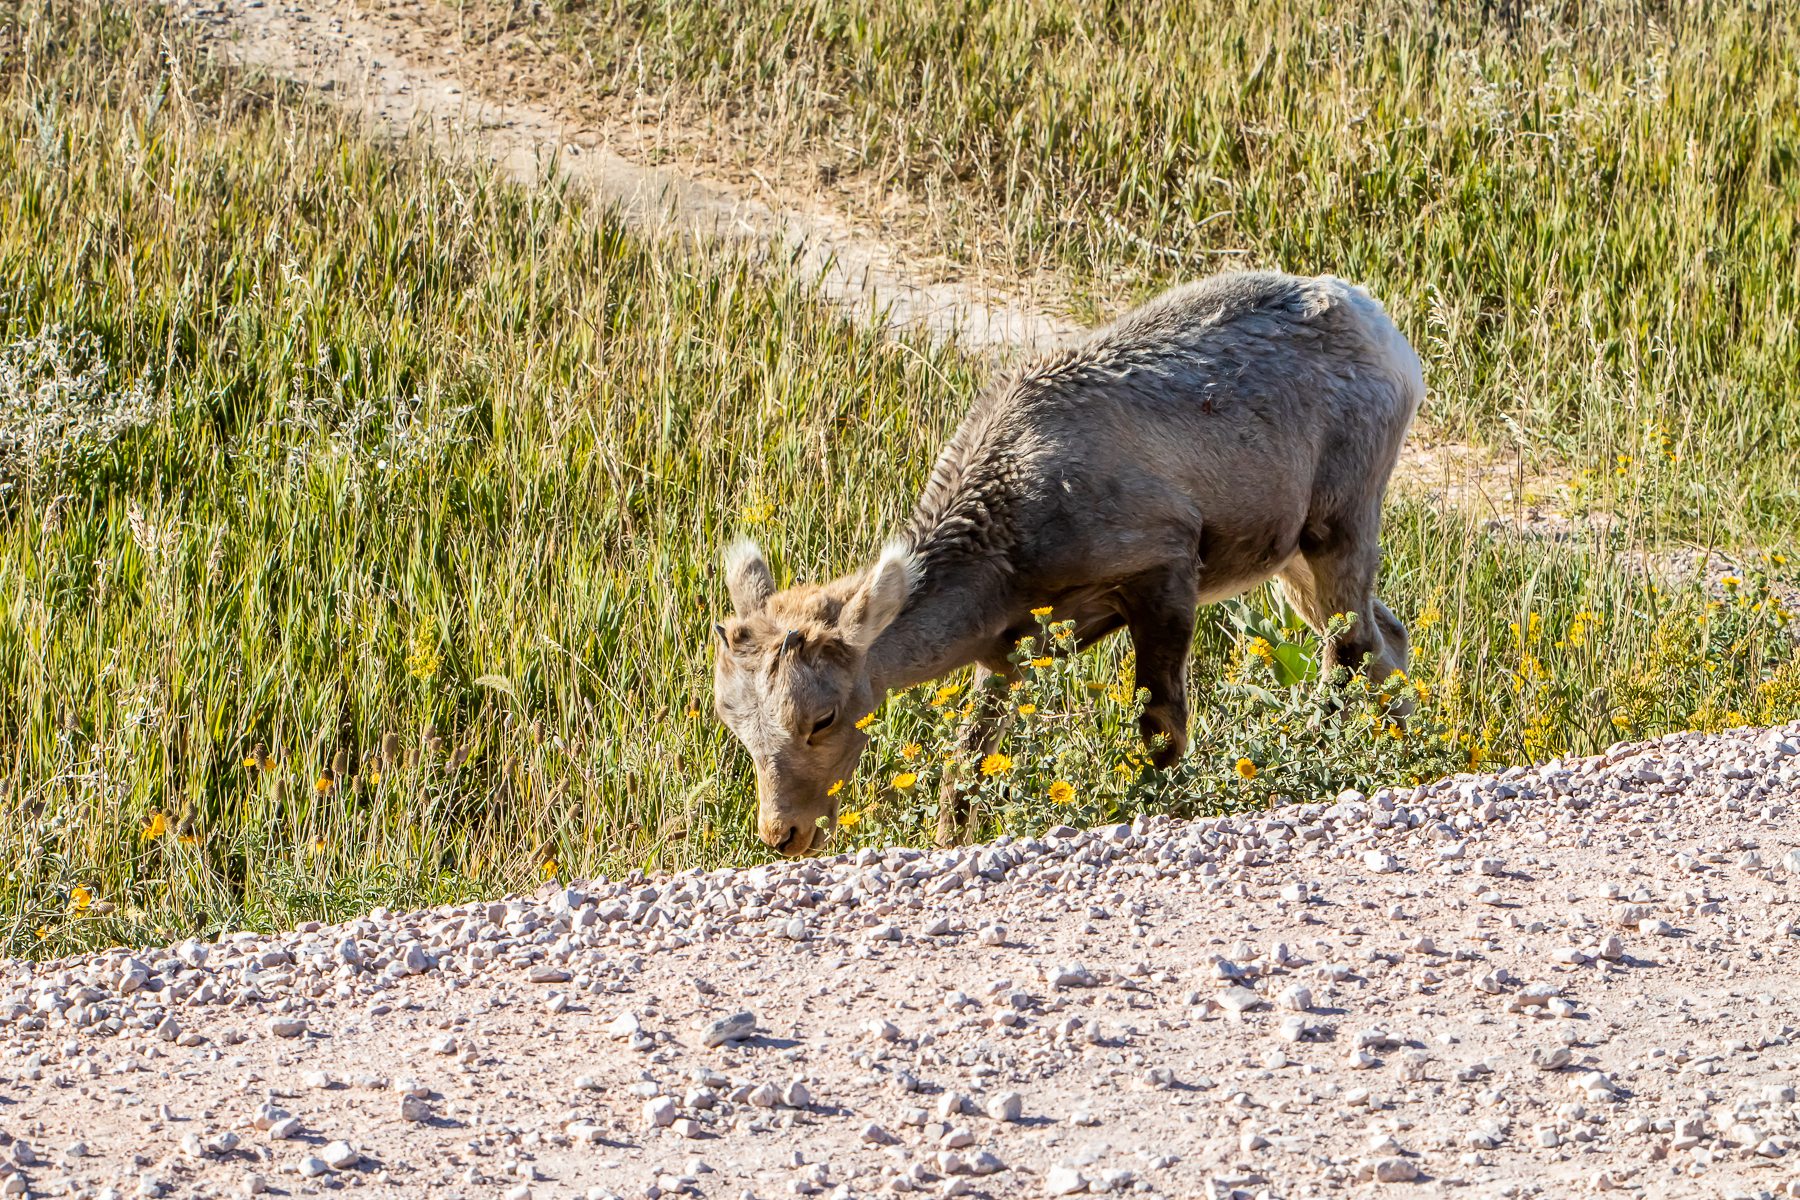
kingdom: Animalia
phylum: Chordata
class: Mammalia
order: Artiodactyla
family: Bovidae
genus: Ovis
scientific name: Ovis canadensis
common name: Bighorn sheep
